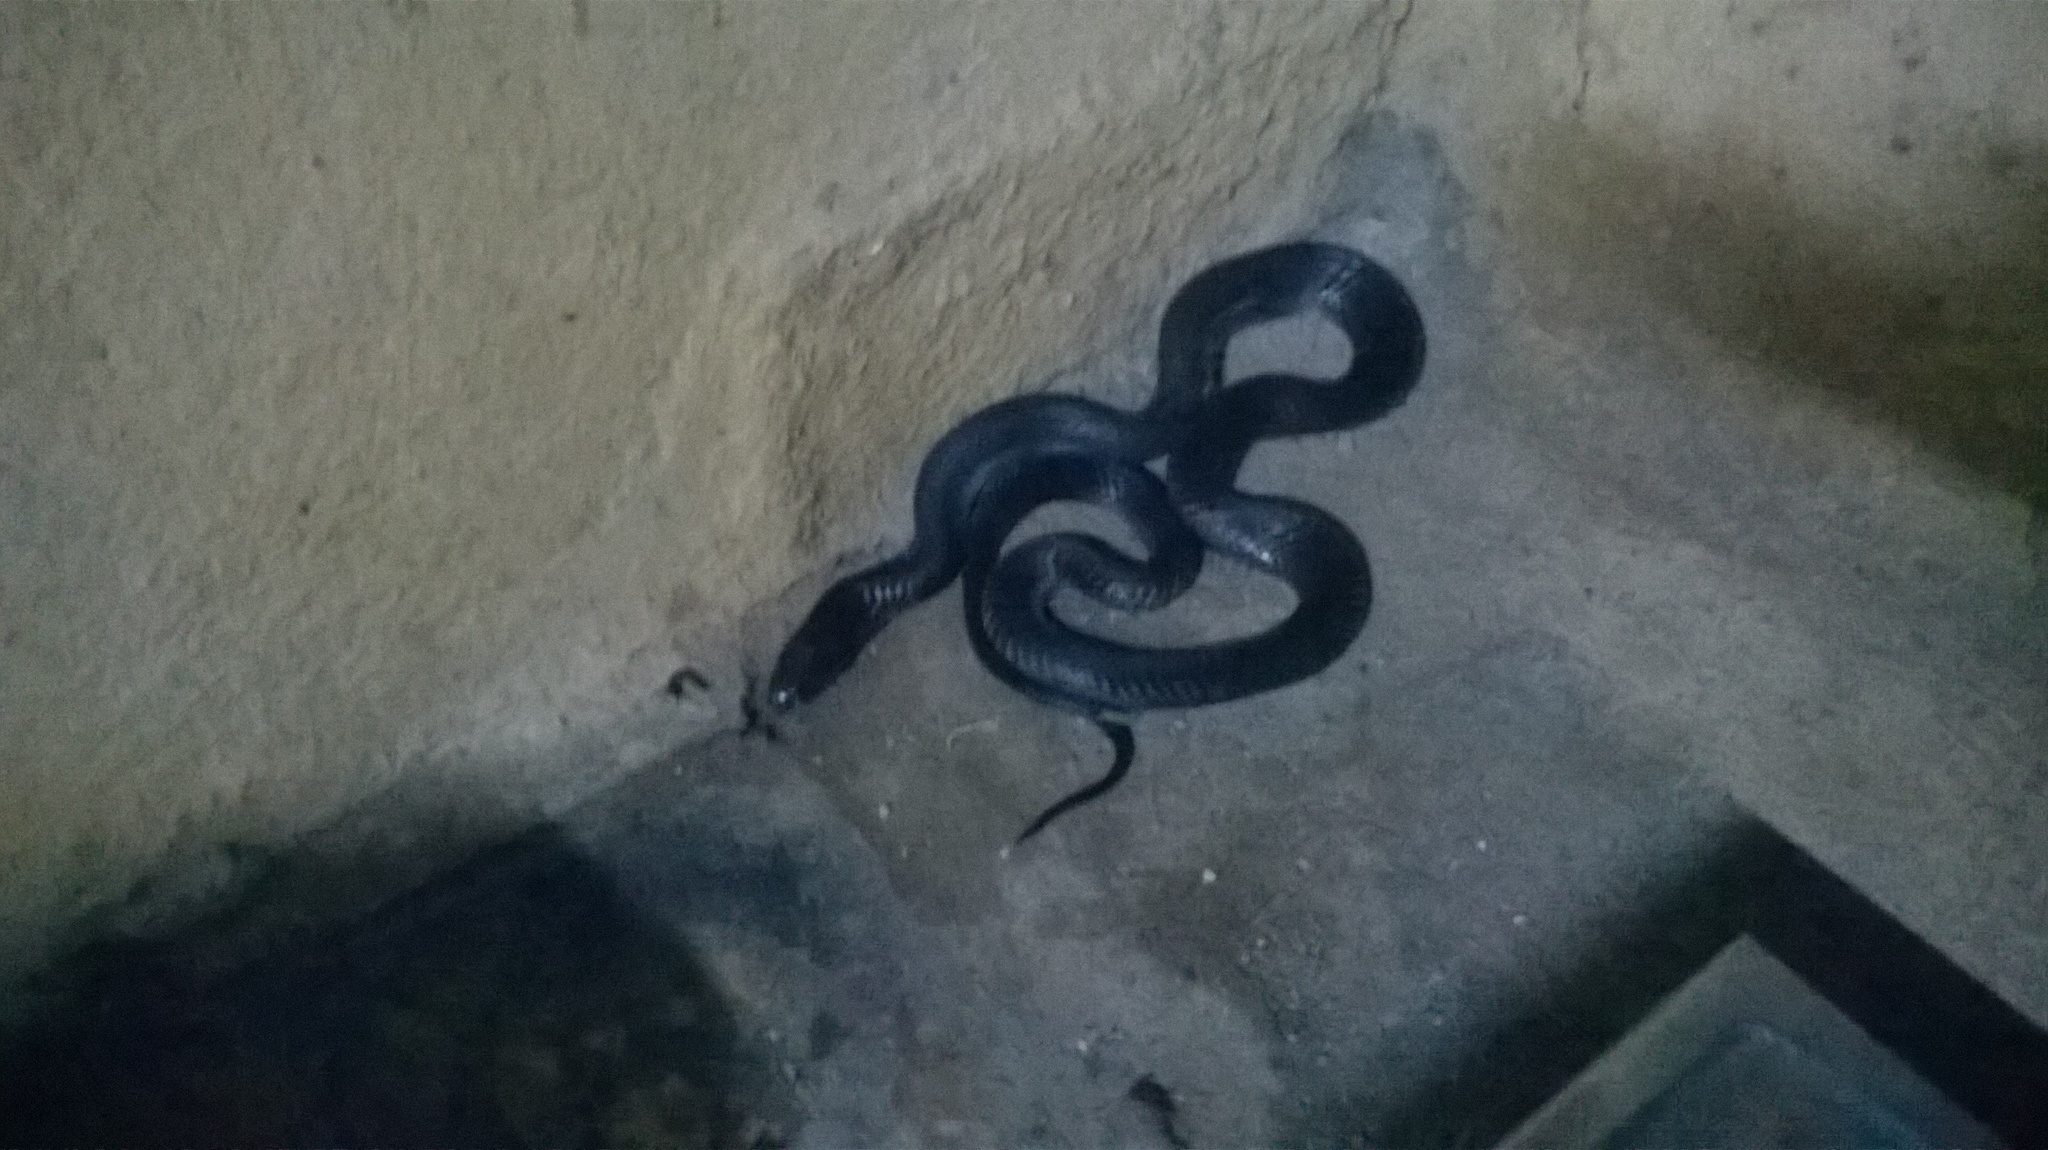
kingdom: Animalia
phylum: Chordata
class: Squamata
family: Elapidae
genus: Naja
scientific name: Naja naja
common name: Indian cobra
